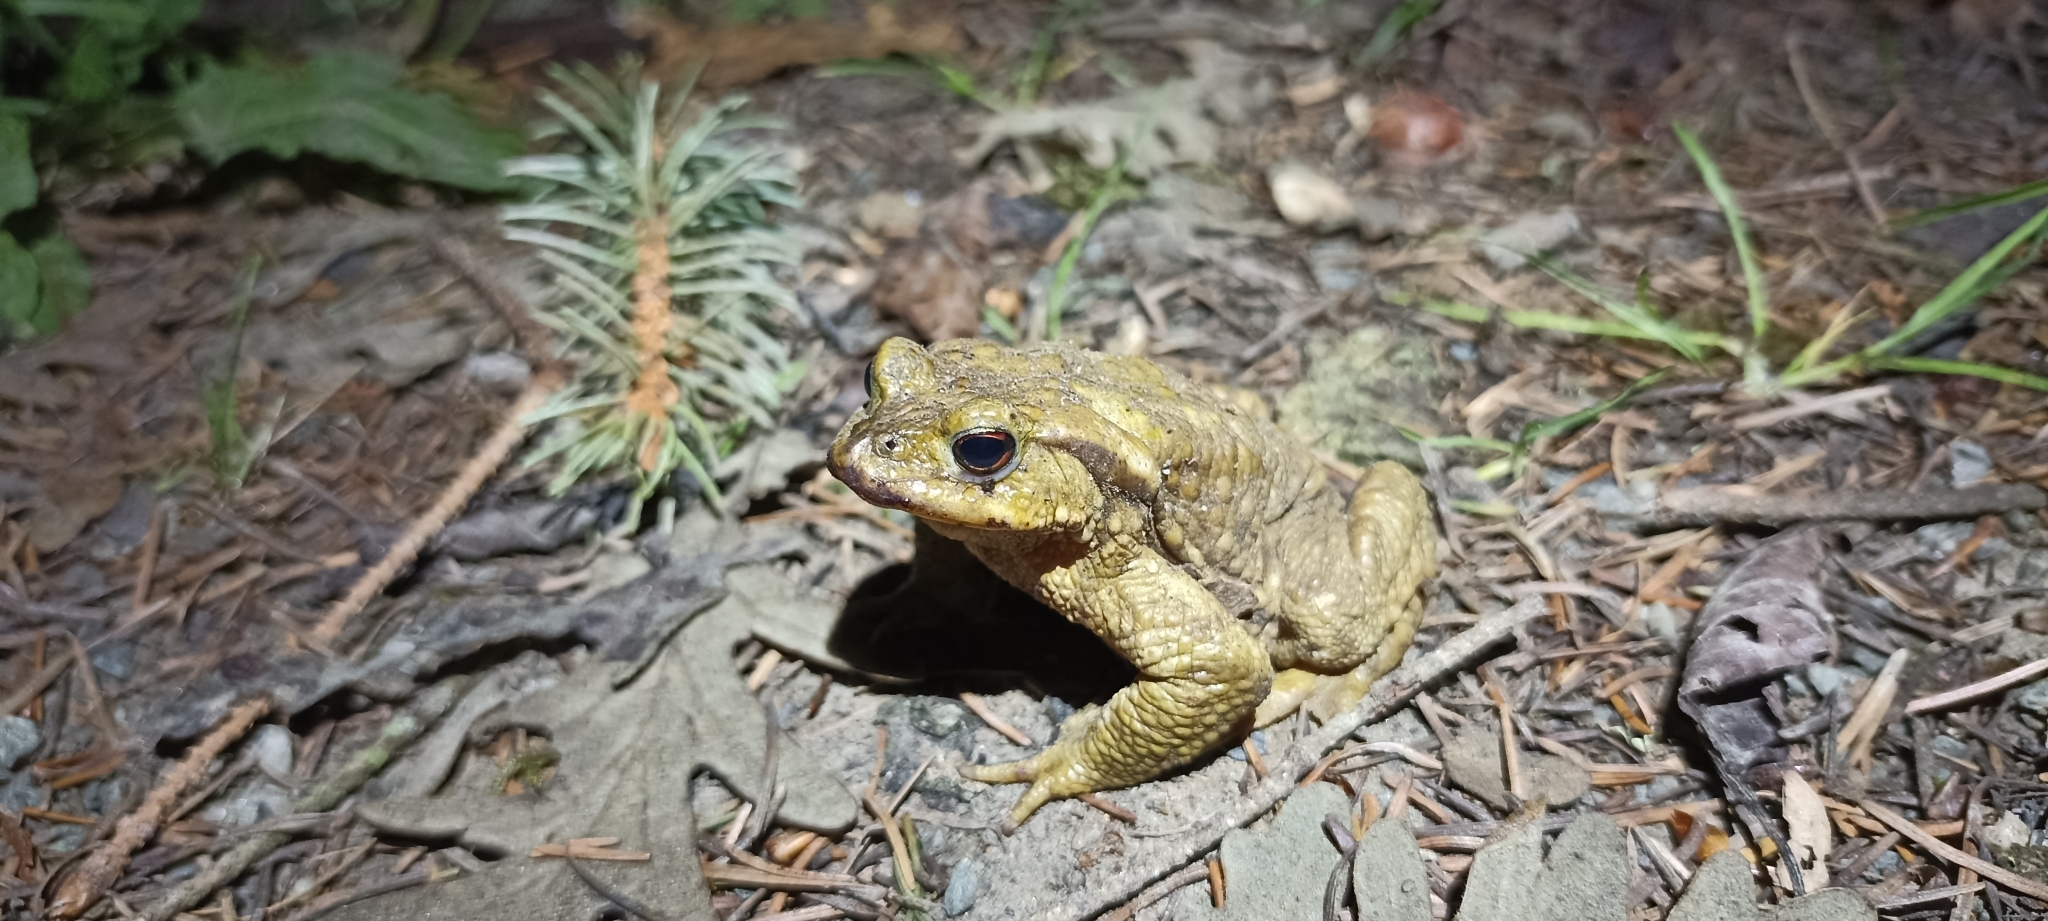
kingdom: Animalia
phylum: Chordata
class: Amphibia
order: Anura
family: Bufonidae
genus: Bufo
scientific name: Bufo spinosus
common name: Western common toad
